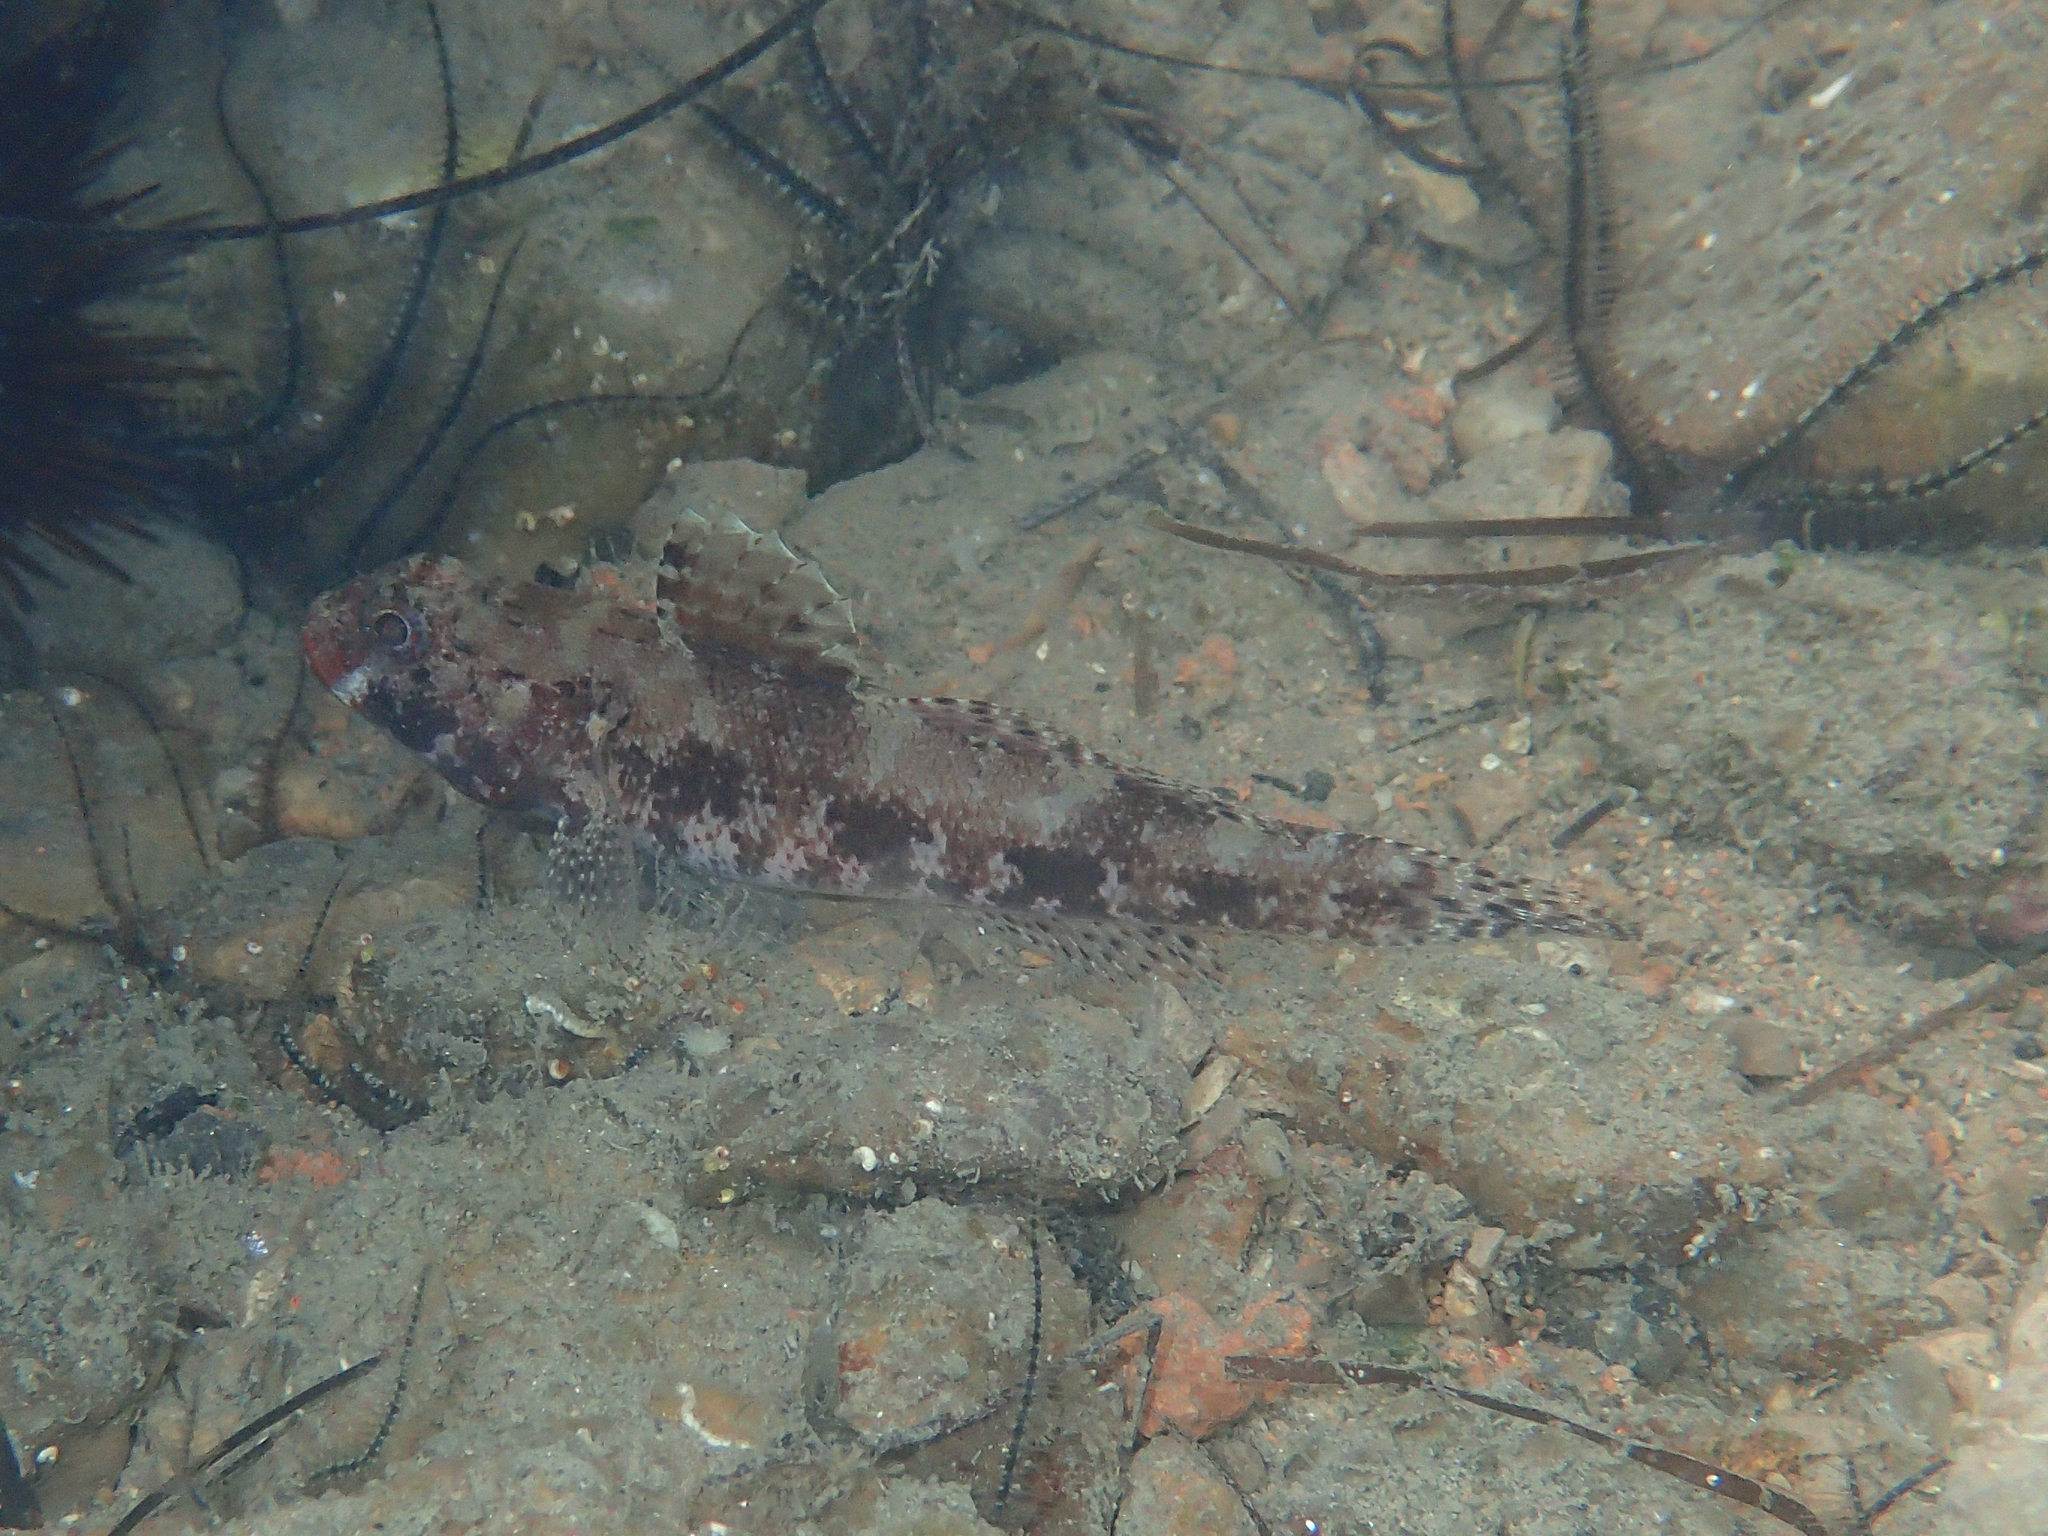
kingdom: Animalia
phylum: Chordata
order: Perciformes
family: Gobiidae
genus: Gobius
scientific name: Gobius cruentatus
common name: Red-mouthed goby
